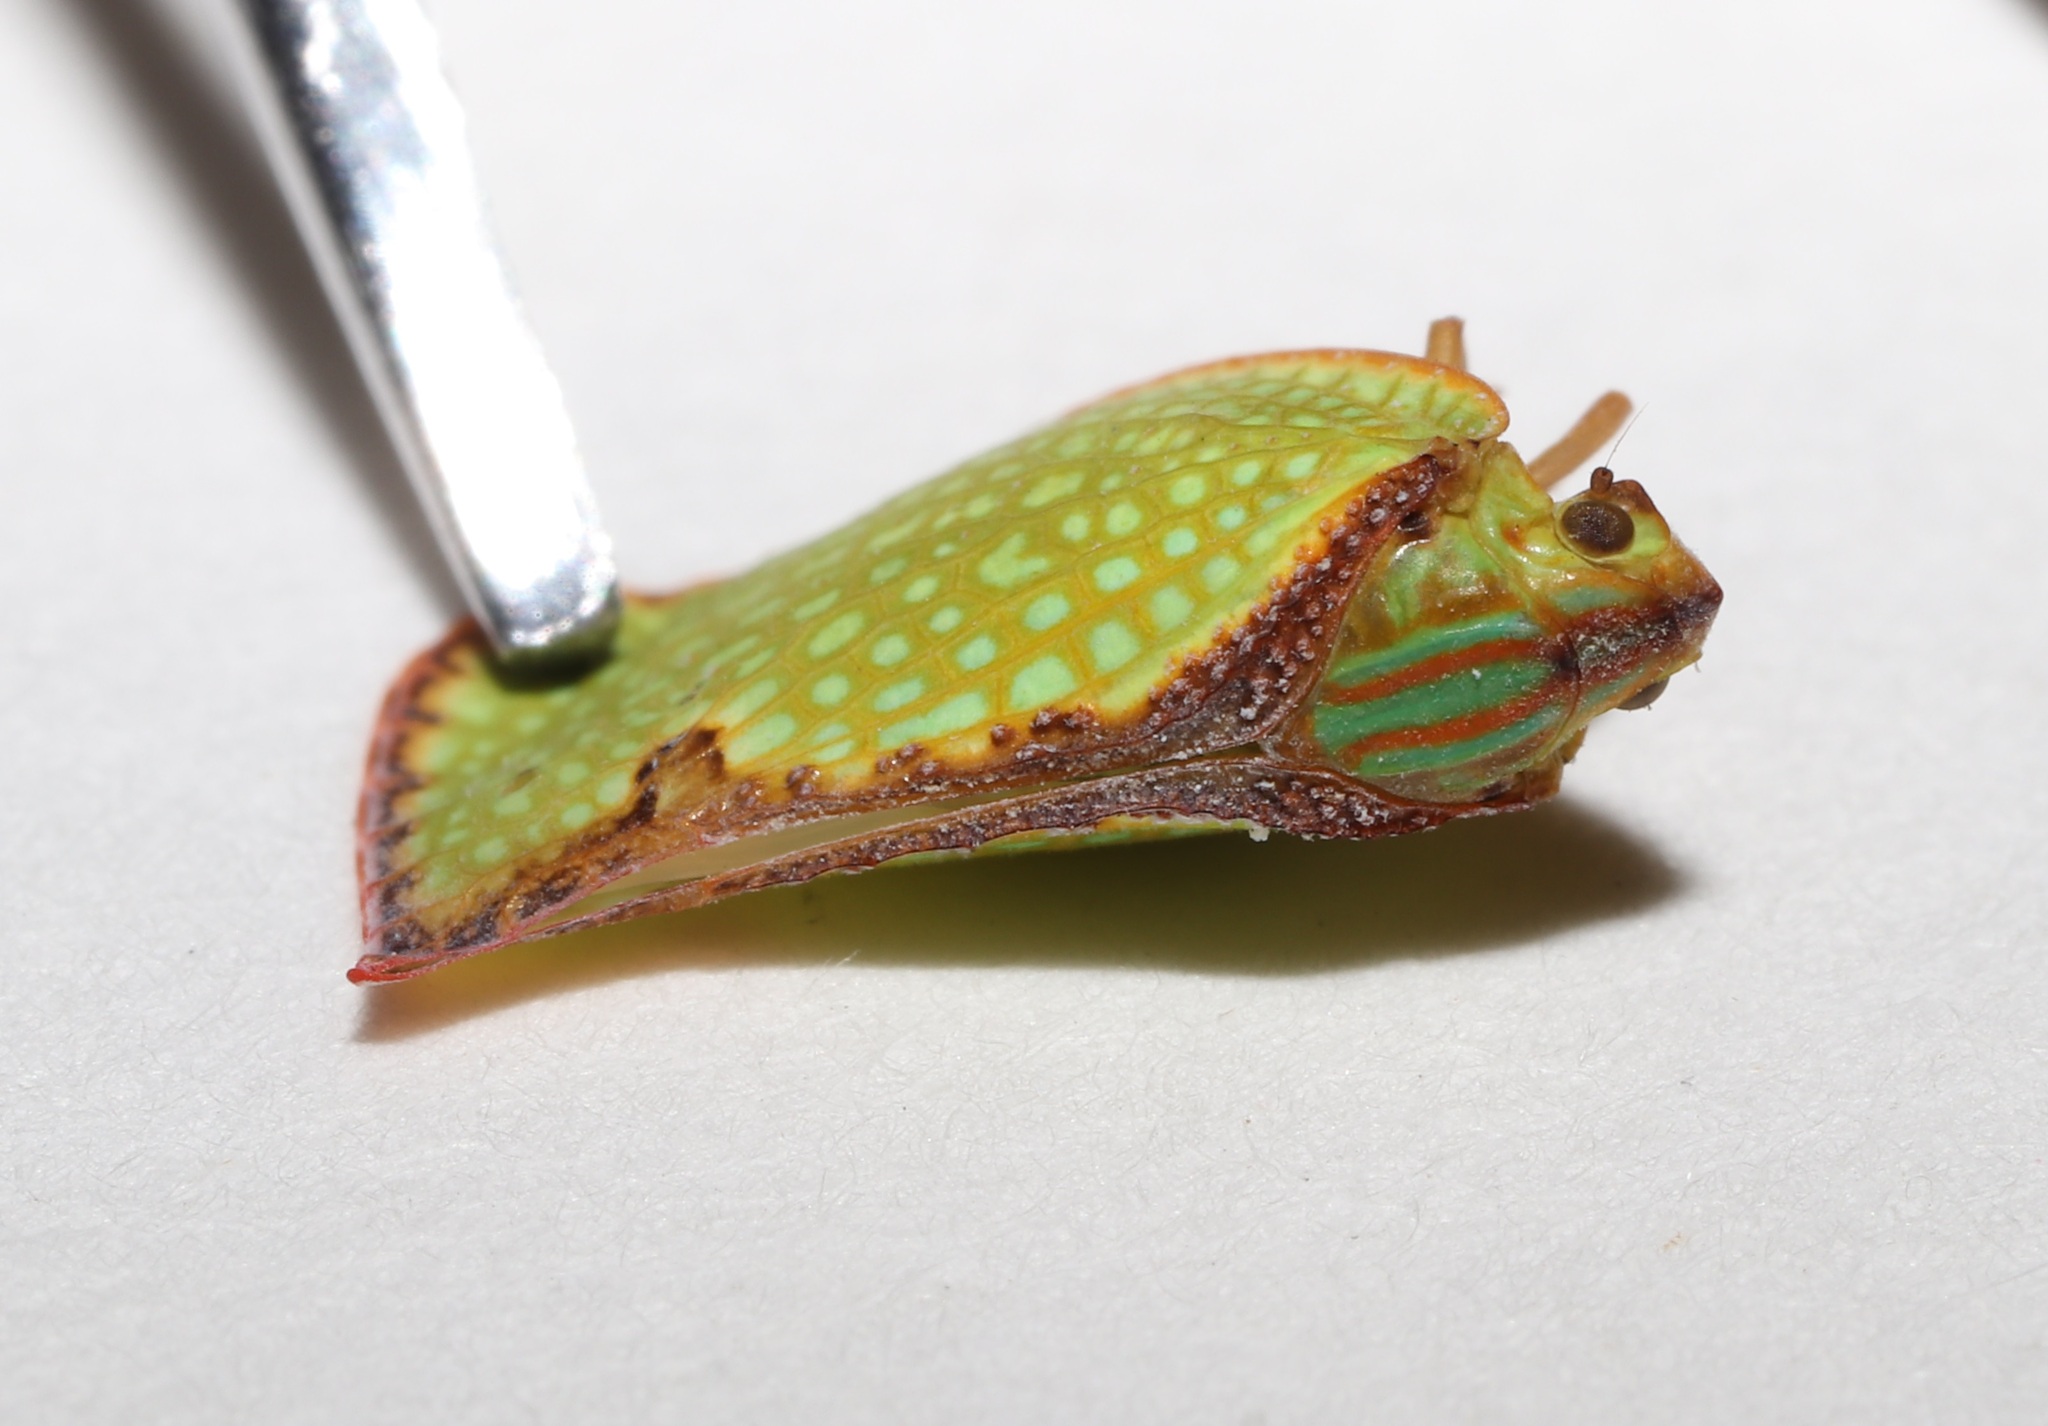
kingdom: Animalia
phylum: Arthropoda
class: Insecta
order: Hemiptera
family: Flatidae
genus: Salurnis
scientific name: Salurnis marginella
